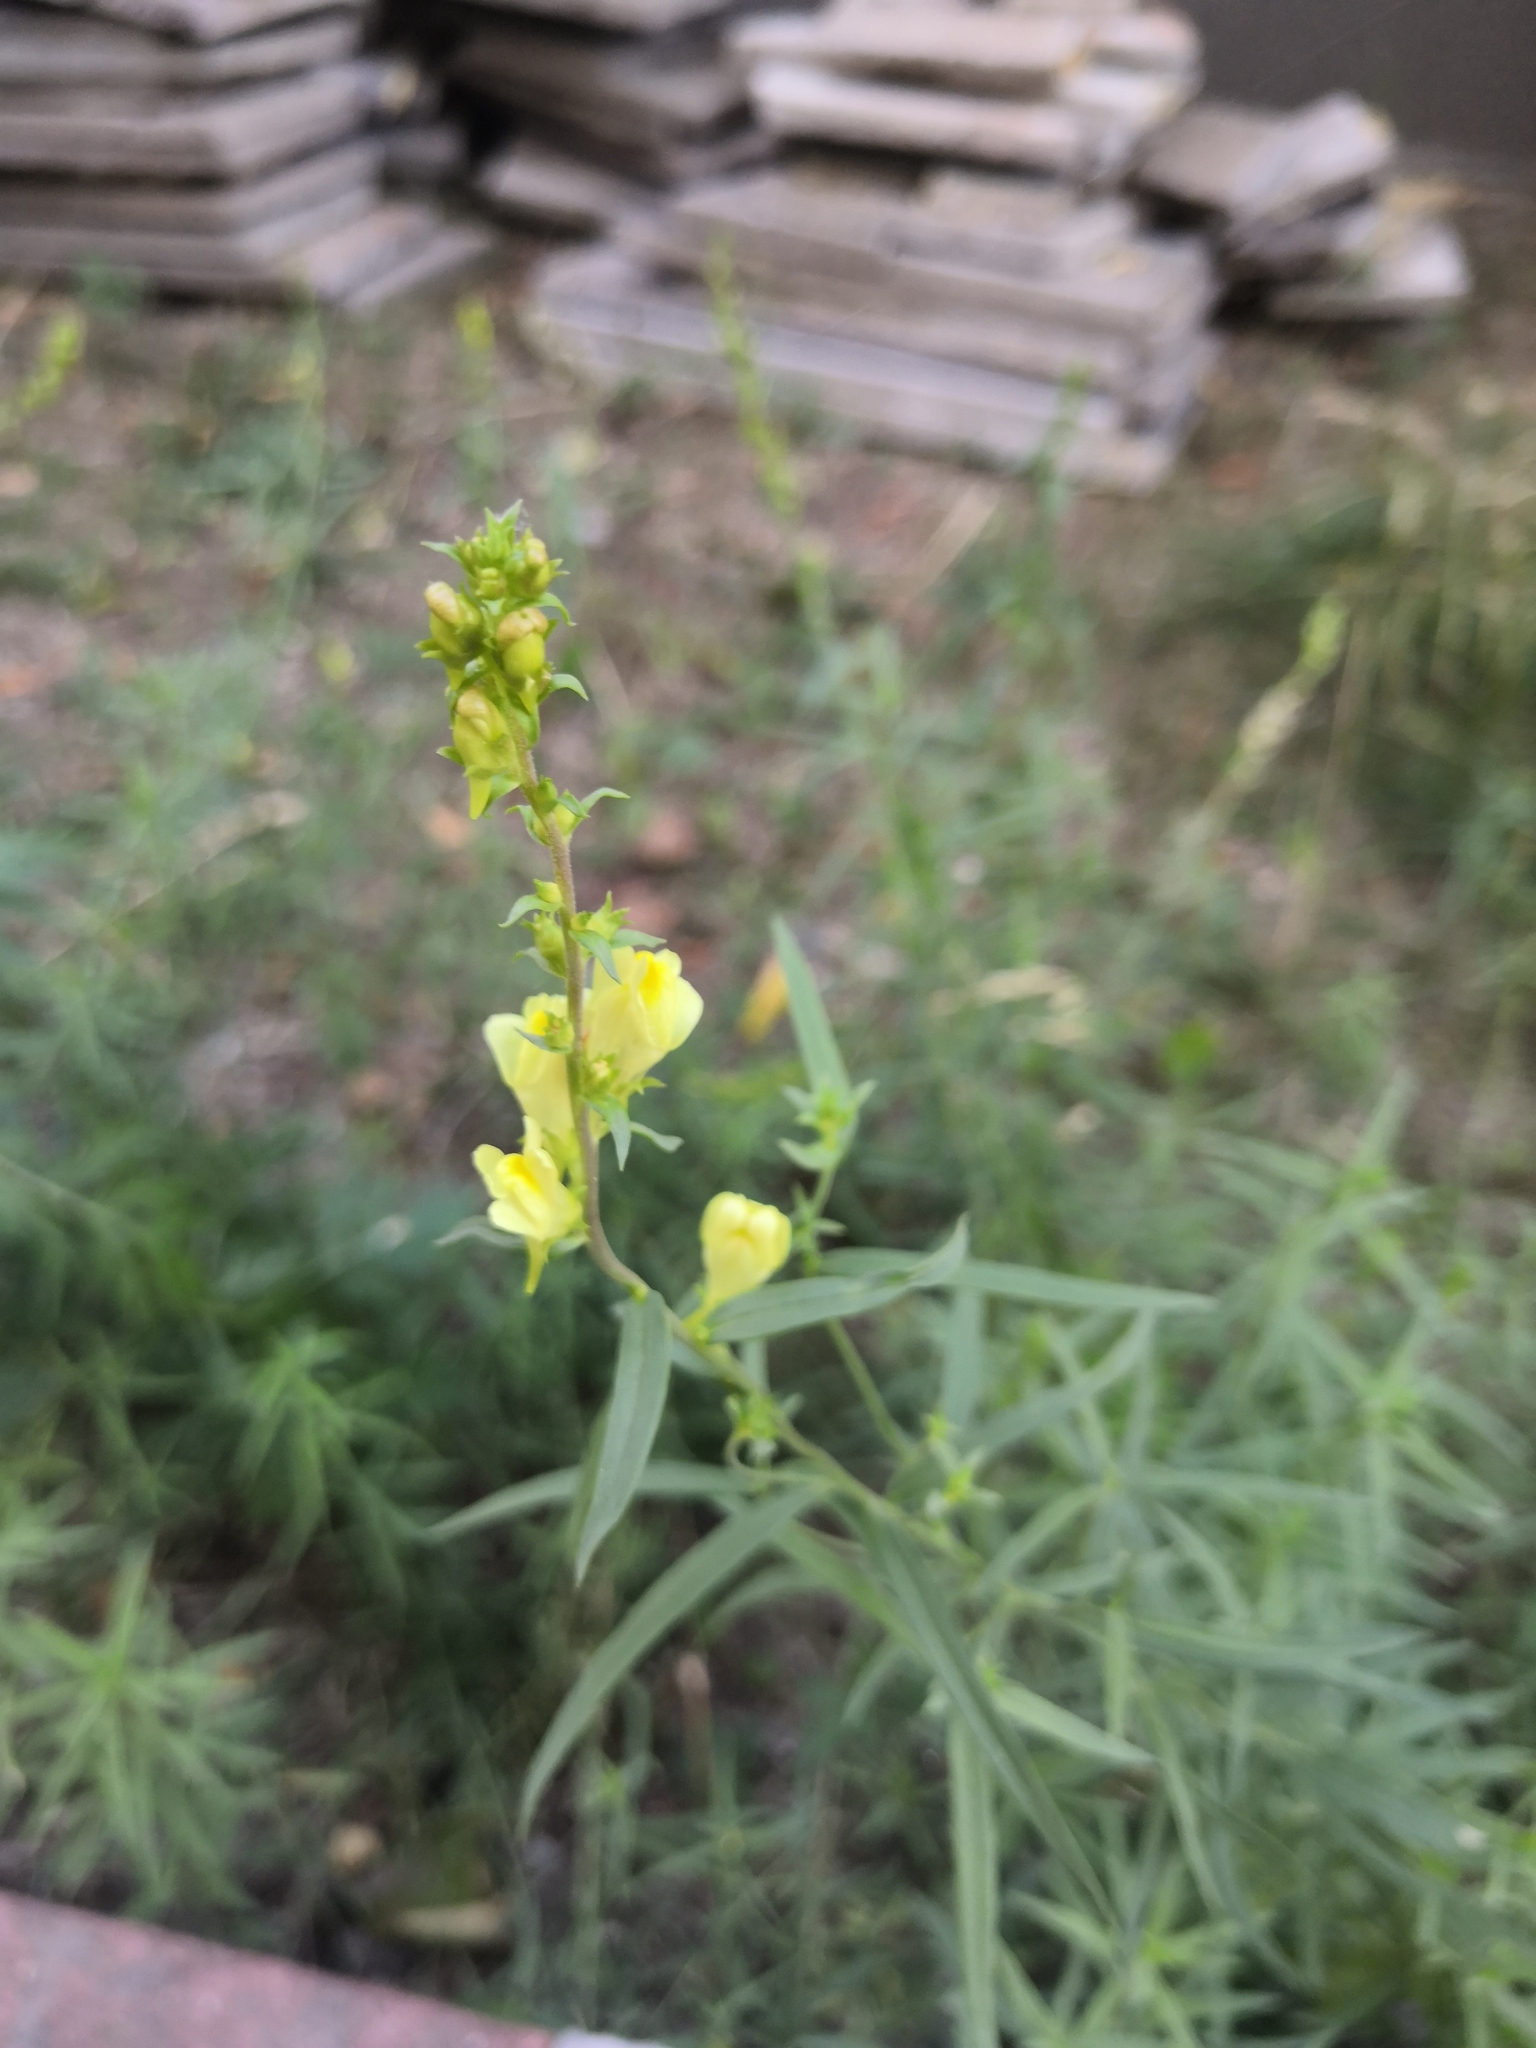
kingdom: Plantae
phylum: Tracheophyta
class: Magnoliopsida
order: Lamiales
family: Plantaginaceae
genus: Linaria
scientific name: Linaria vulgaris
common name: Butter and eggs
